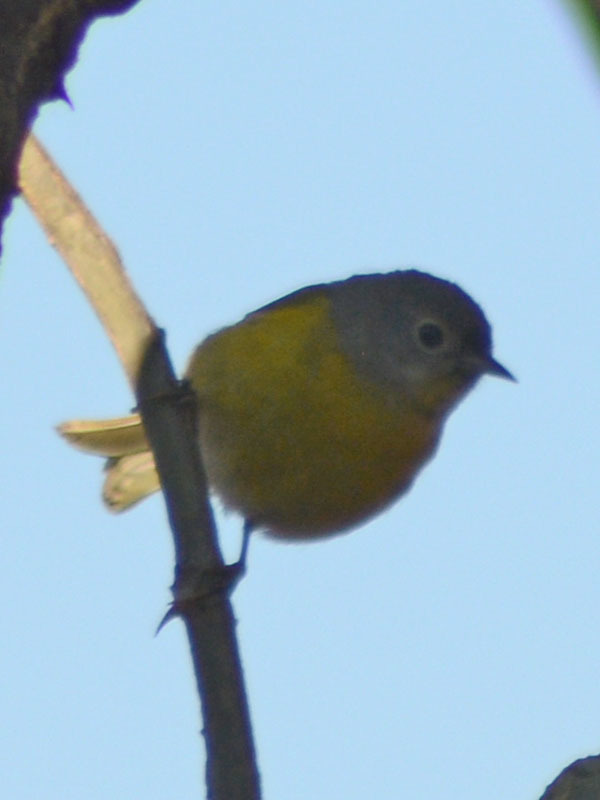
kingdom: Animalia
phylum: Chordata
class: Aves
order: Passeriformes
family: Parulidae
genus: Leiothlypis
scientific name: Leiothlypis ruficapilla
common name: Nashville warbler
